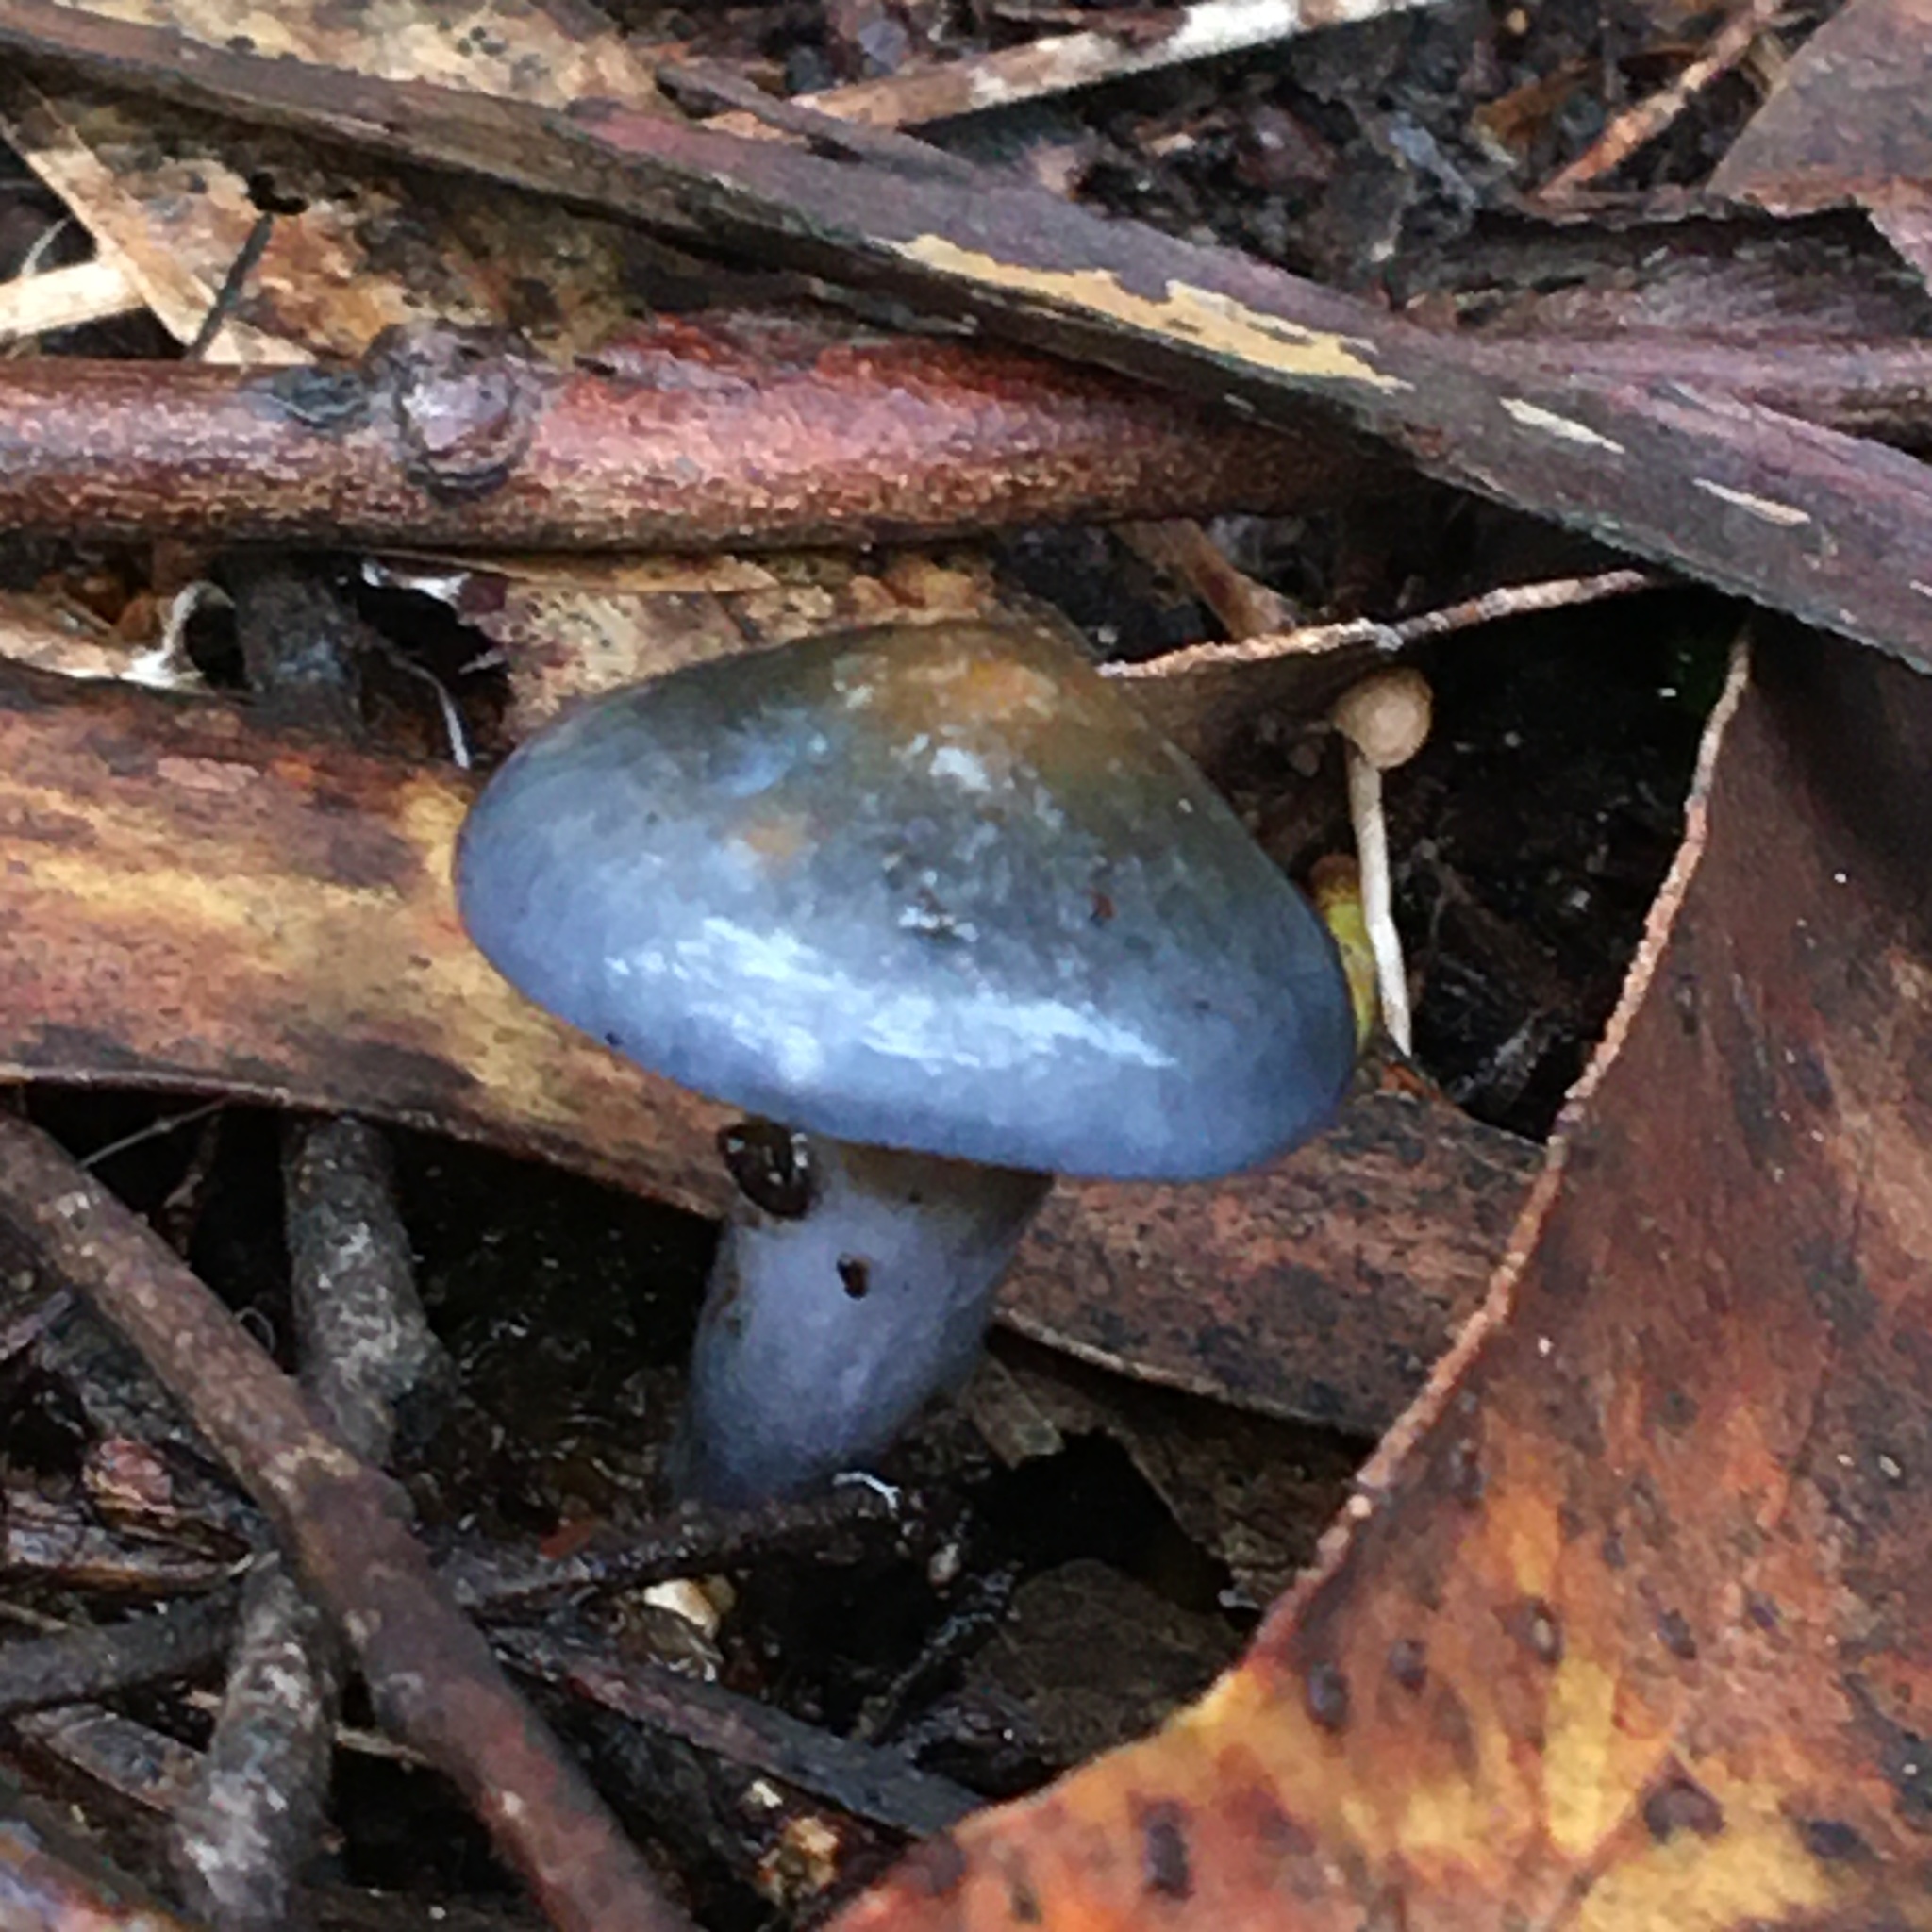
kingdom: Fungi
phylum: Basidiomycota
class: Agaricomycetes
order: Agaricales
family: Cortinariaceae
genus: Cortinarius
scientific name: Cortinarius rotundisporus
